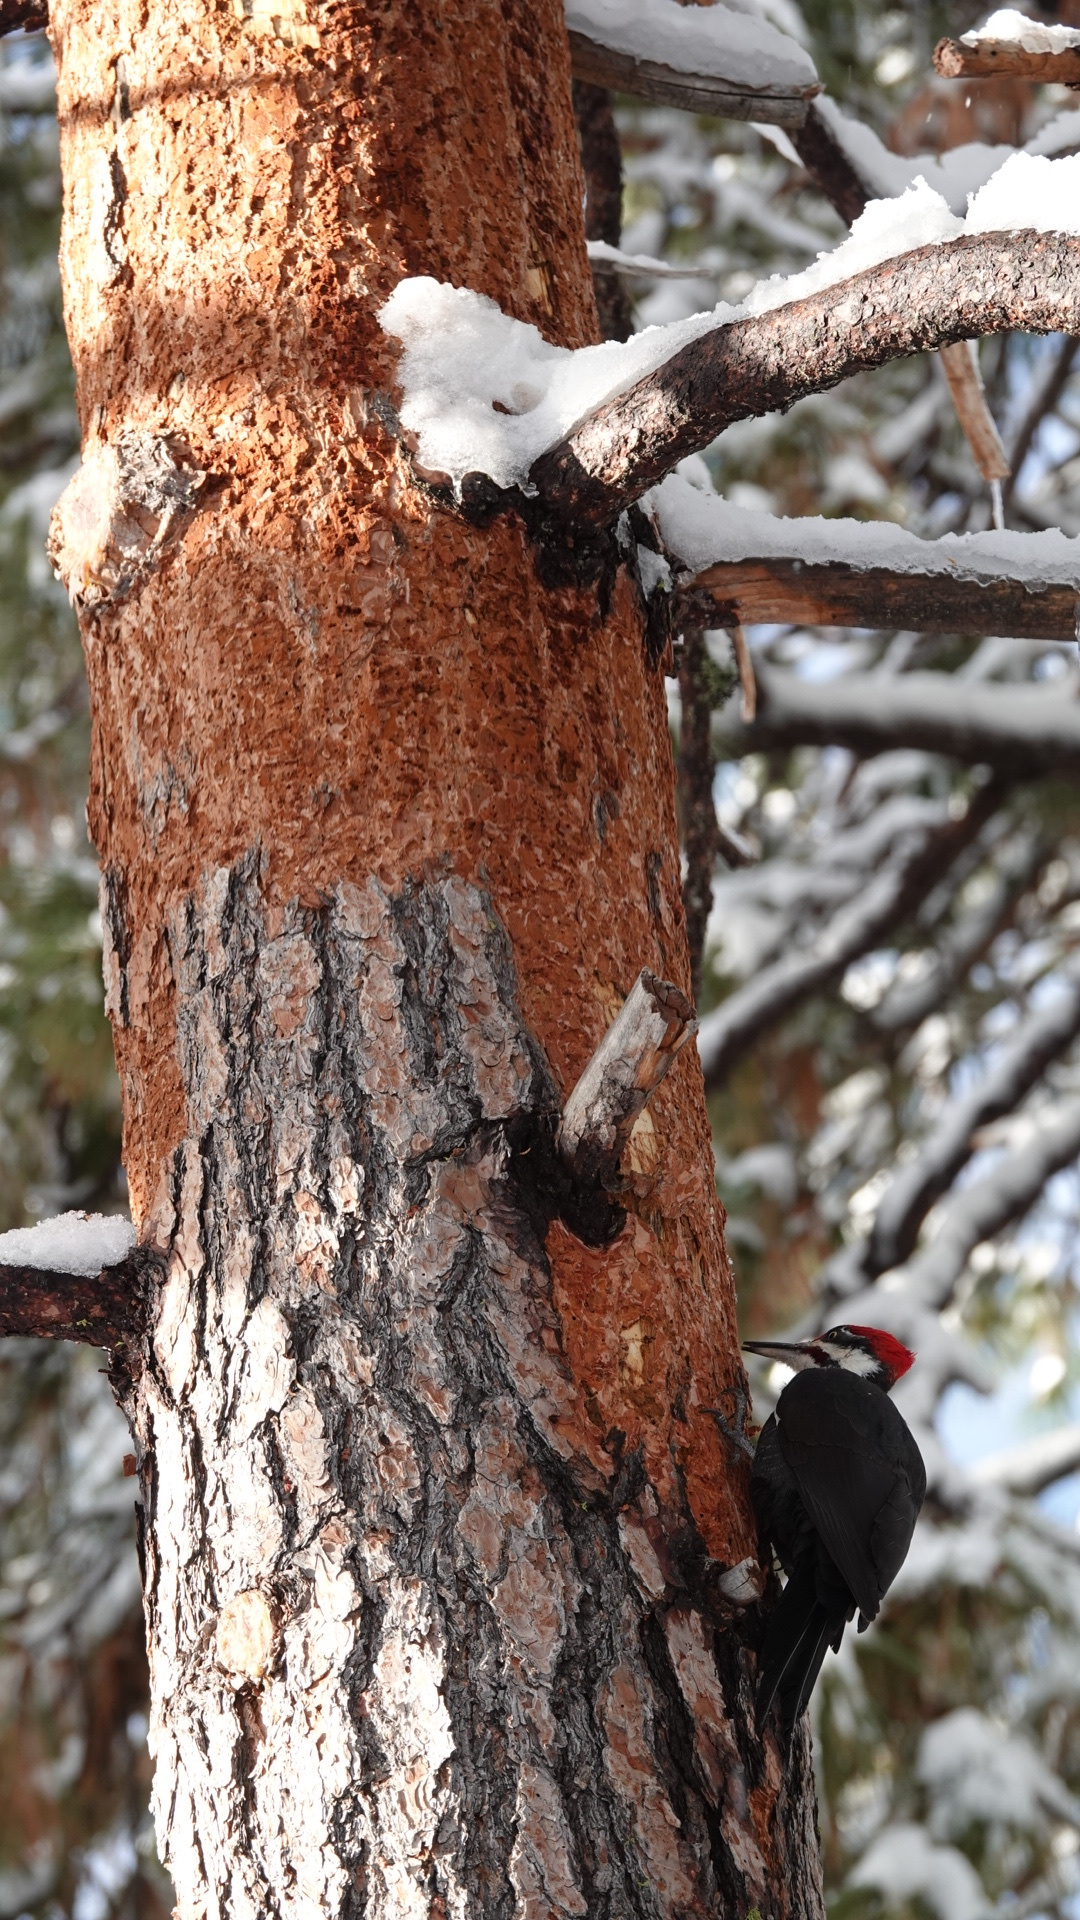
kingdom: Animalia
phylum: Chordata
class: Aves
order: Piciformes
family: Picidae
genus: Dryocopus
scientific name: Dryocopus pileatus
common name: Pileated woodpecker
